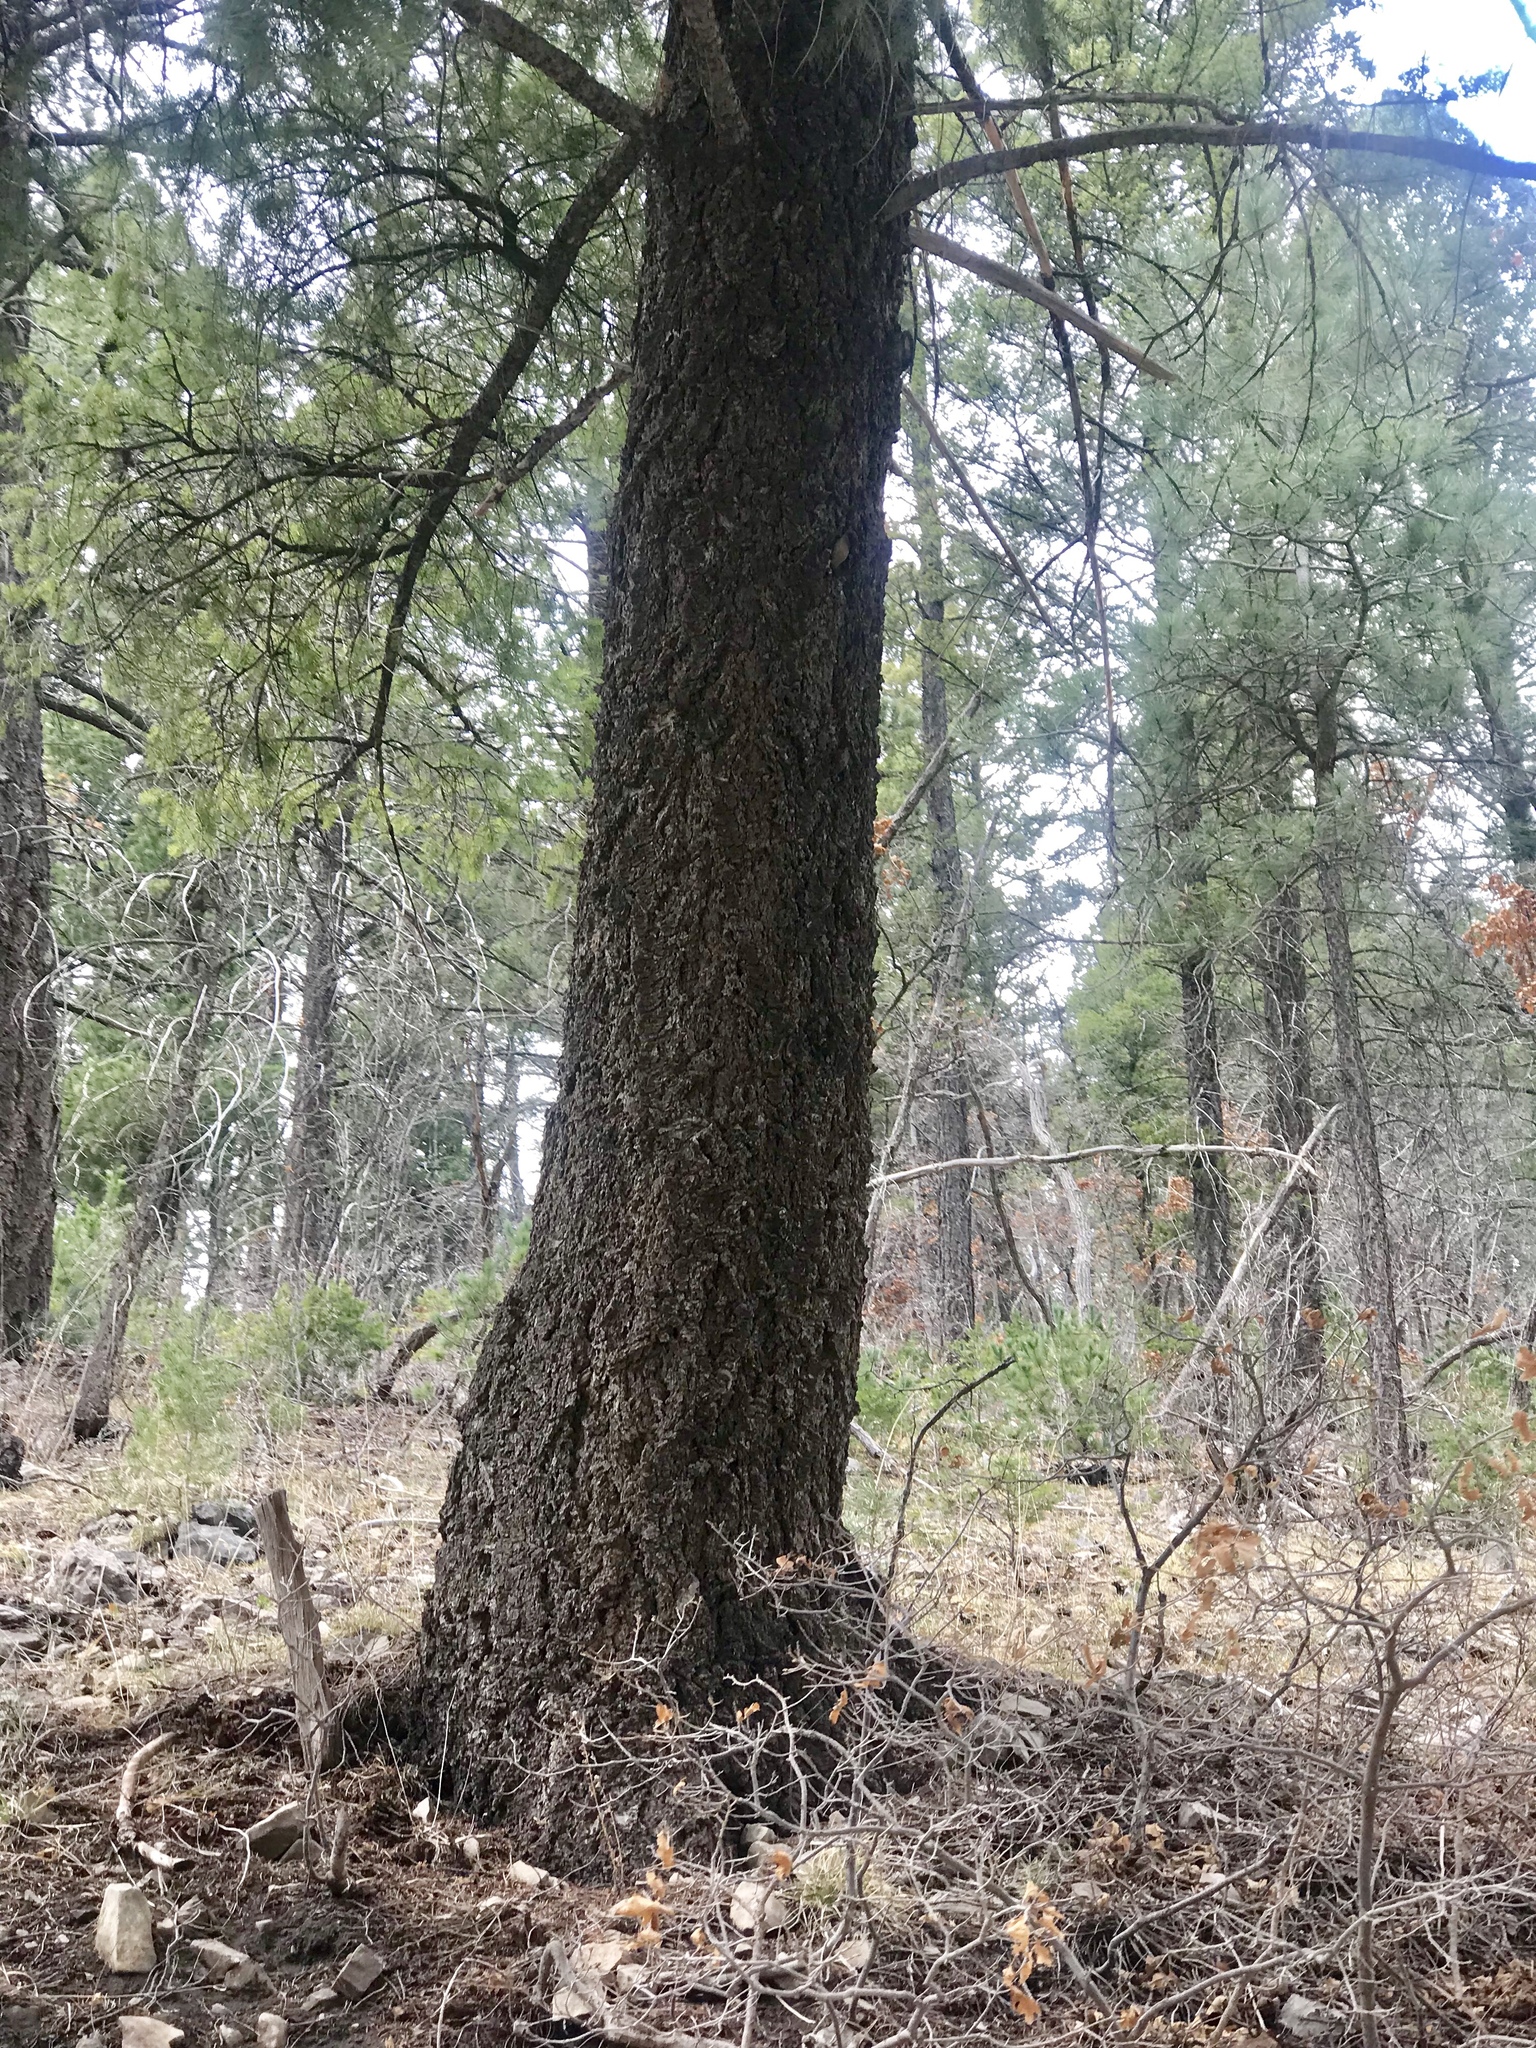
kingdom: Plantae
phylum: Tracheophyta
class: Pinopsida
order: Pinales
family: Pinaceae
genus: Pseudotsuga
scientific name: Pseudotsuga menziesii
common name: Douglas fir
